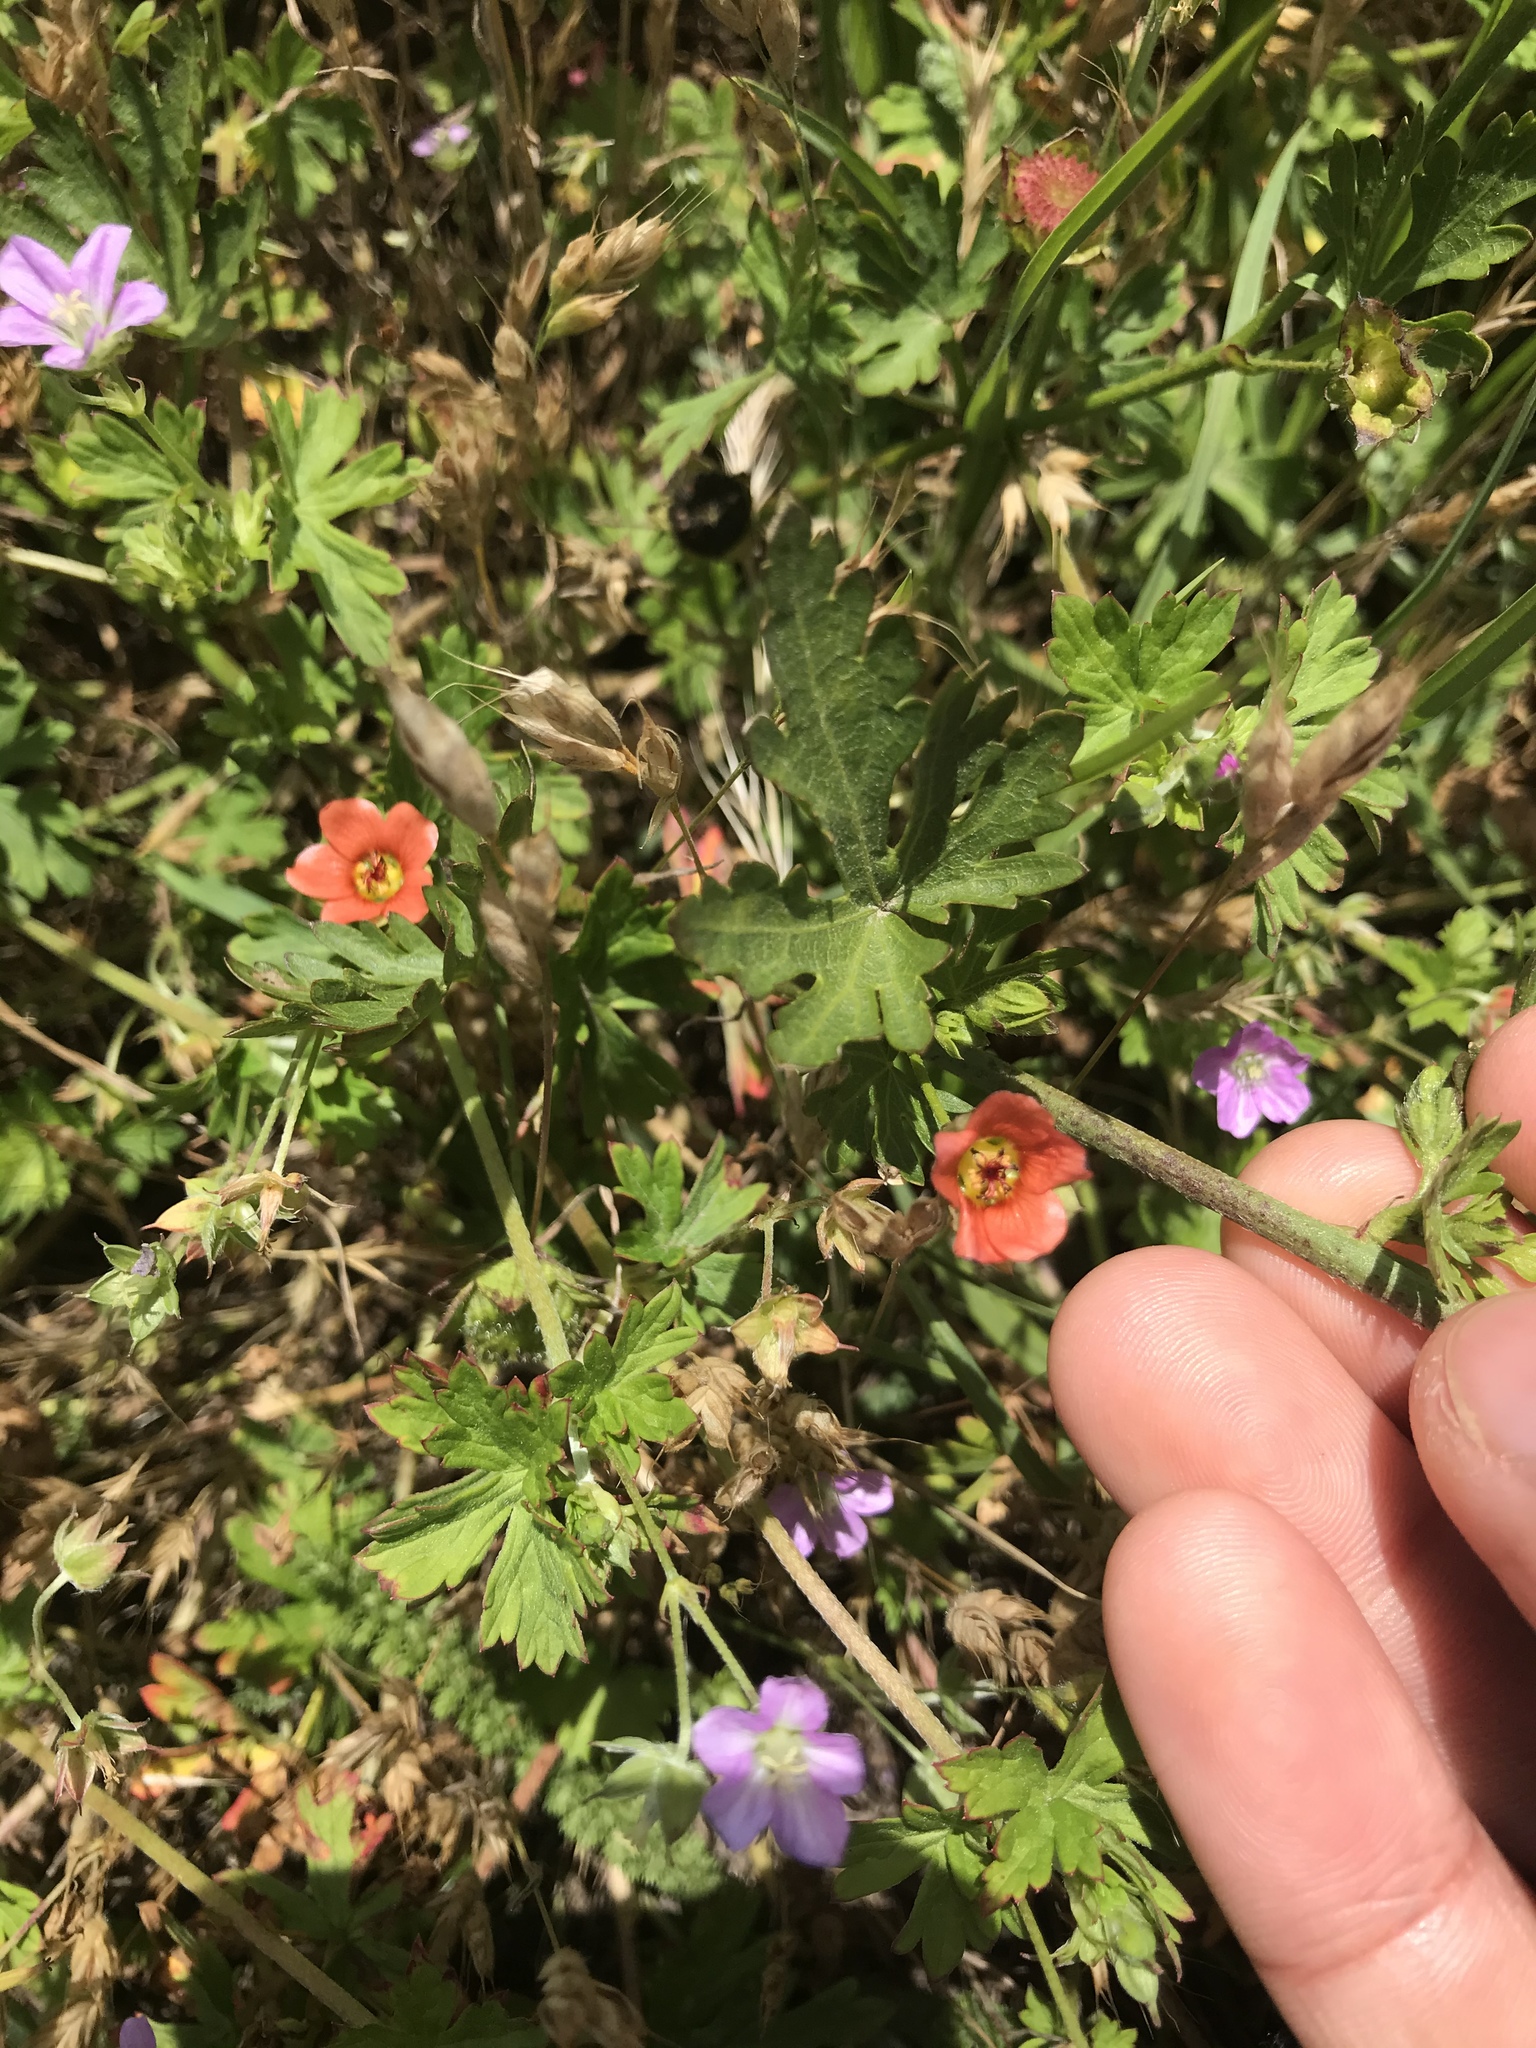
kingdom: Plantae
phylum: Tracheophyta
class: Magnoliopsida
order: Geraniales
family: Geraniaceae
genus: Geranium
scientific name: Geranium core-core
